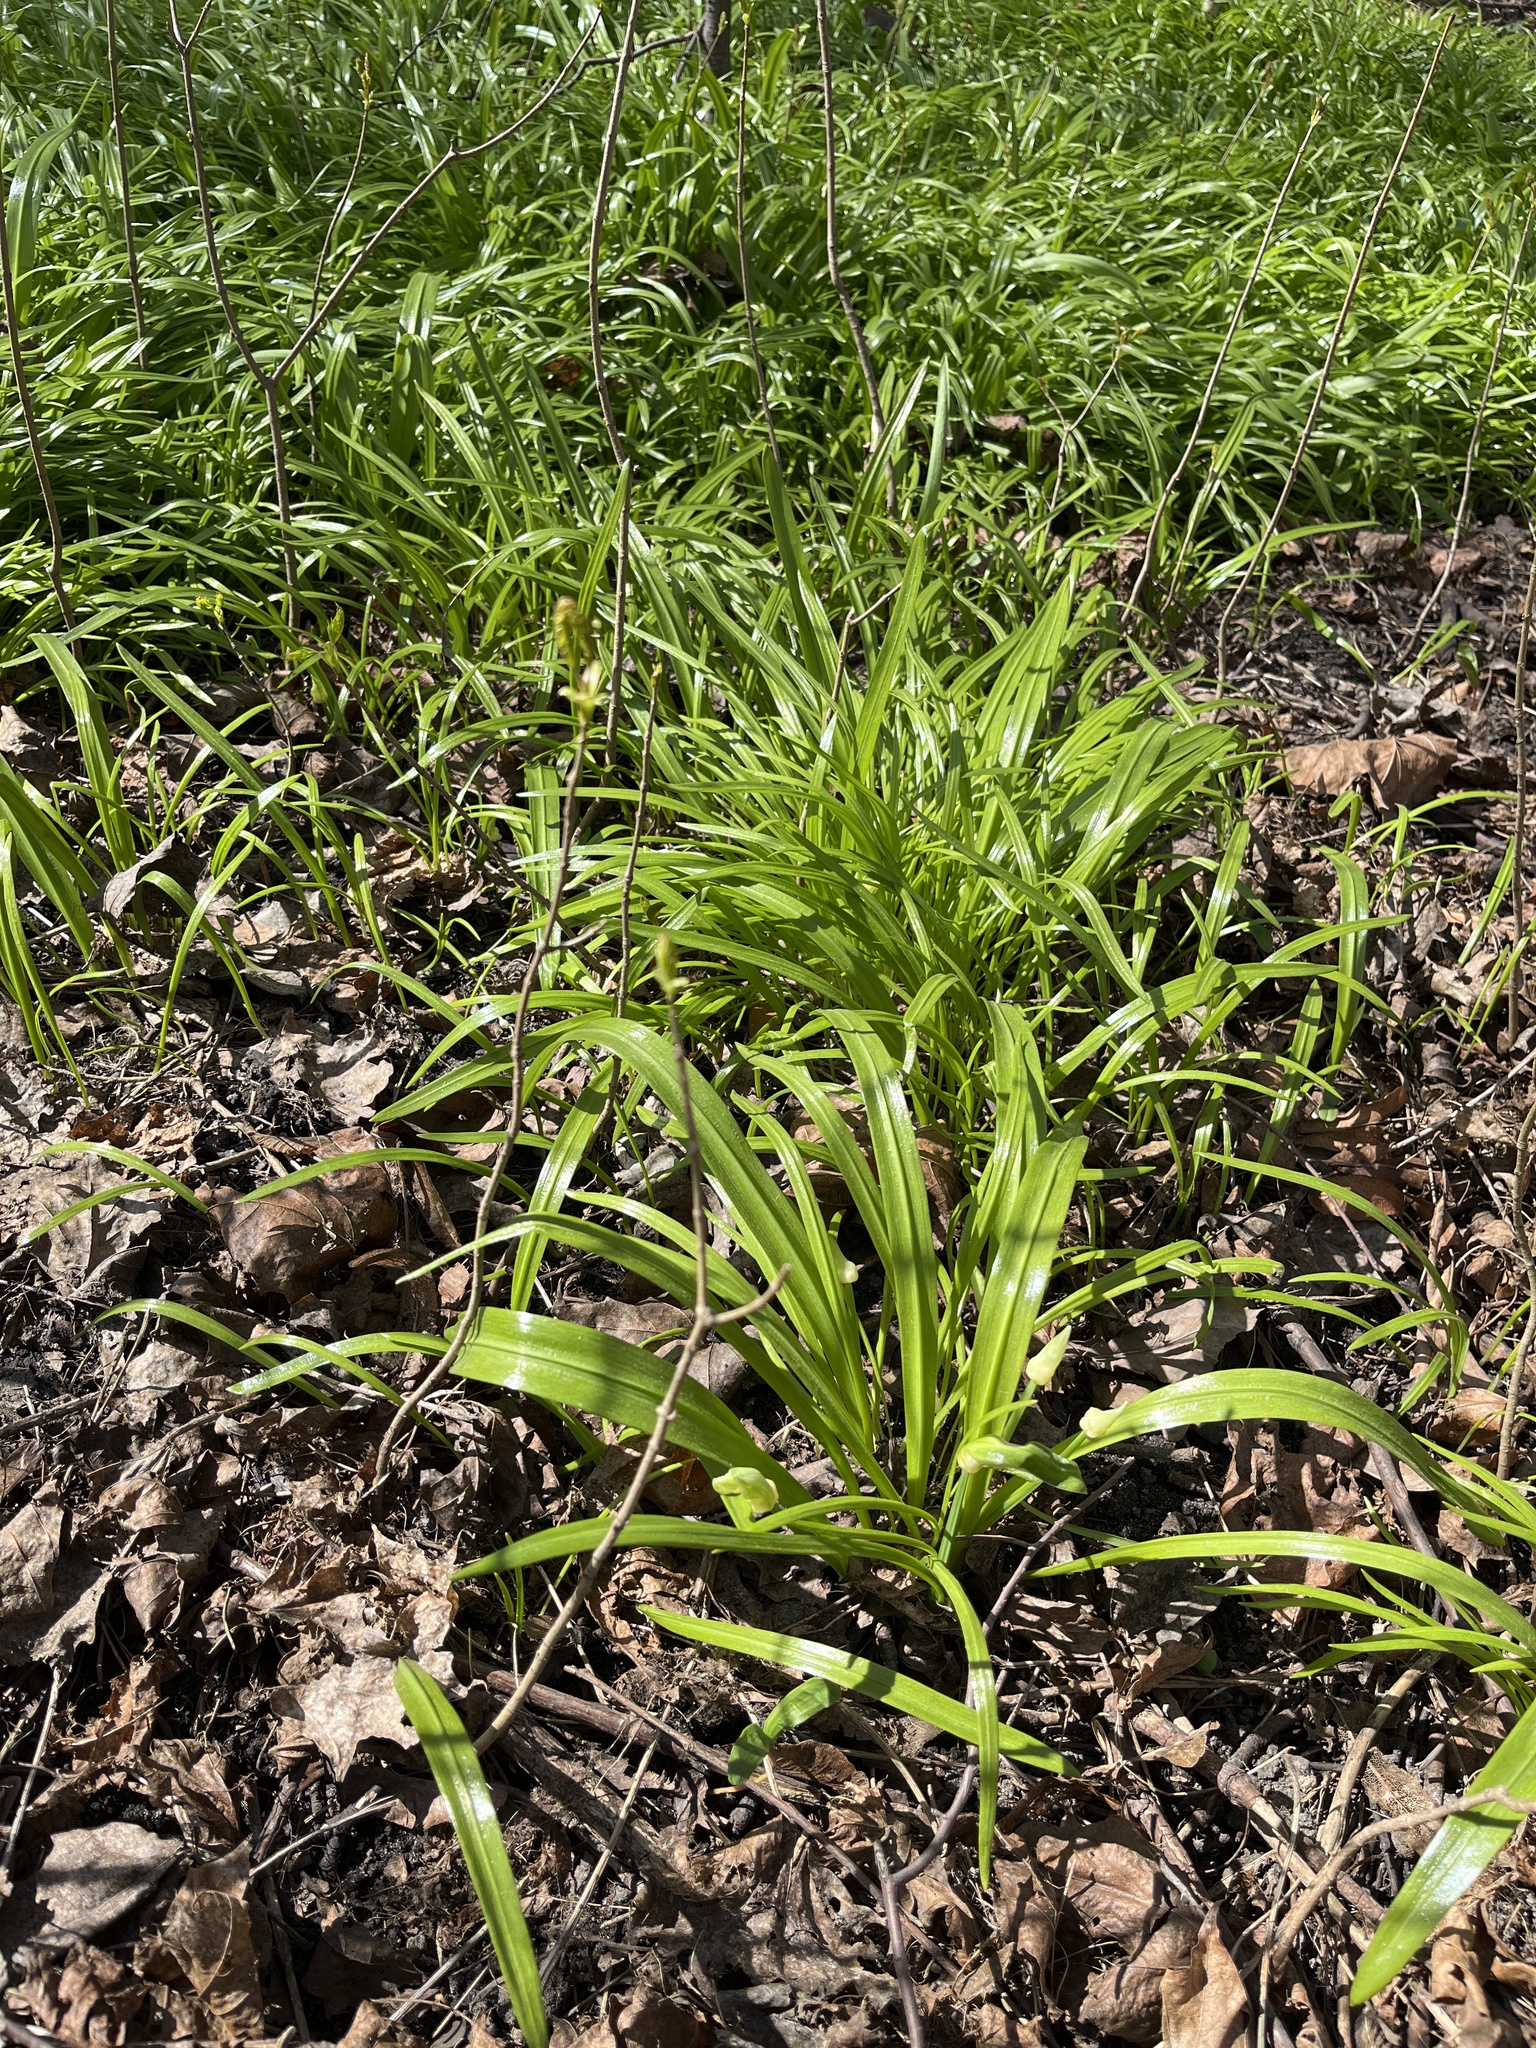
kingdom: Plantae
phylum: Tracheophyta
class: Liliopsida
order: Asparagales
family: Amaryllidaceae
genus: Allium
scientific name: Allium paradoxum
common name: Few-flowered garlic
